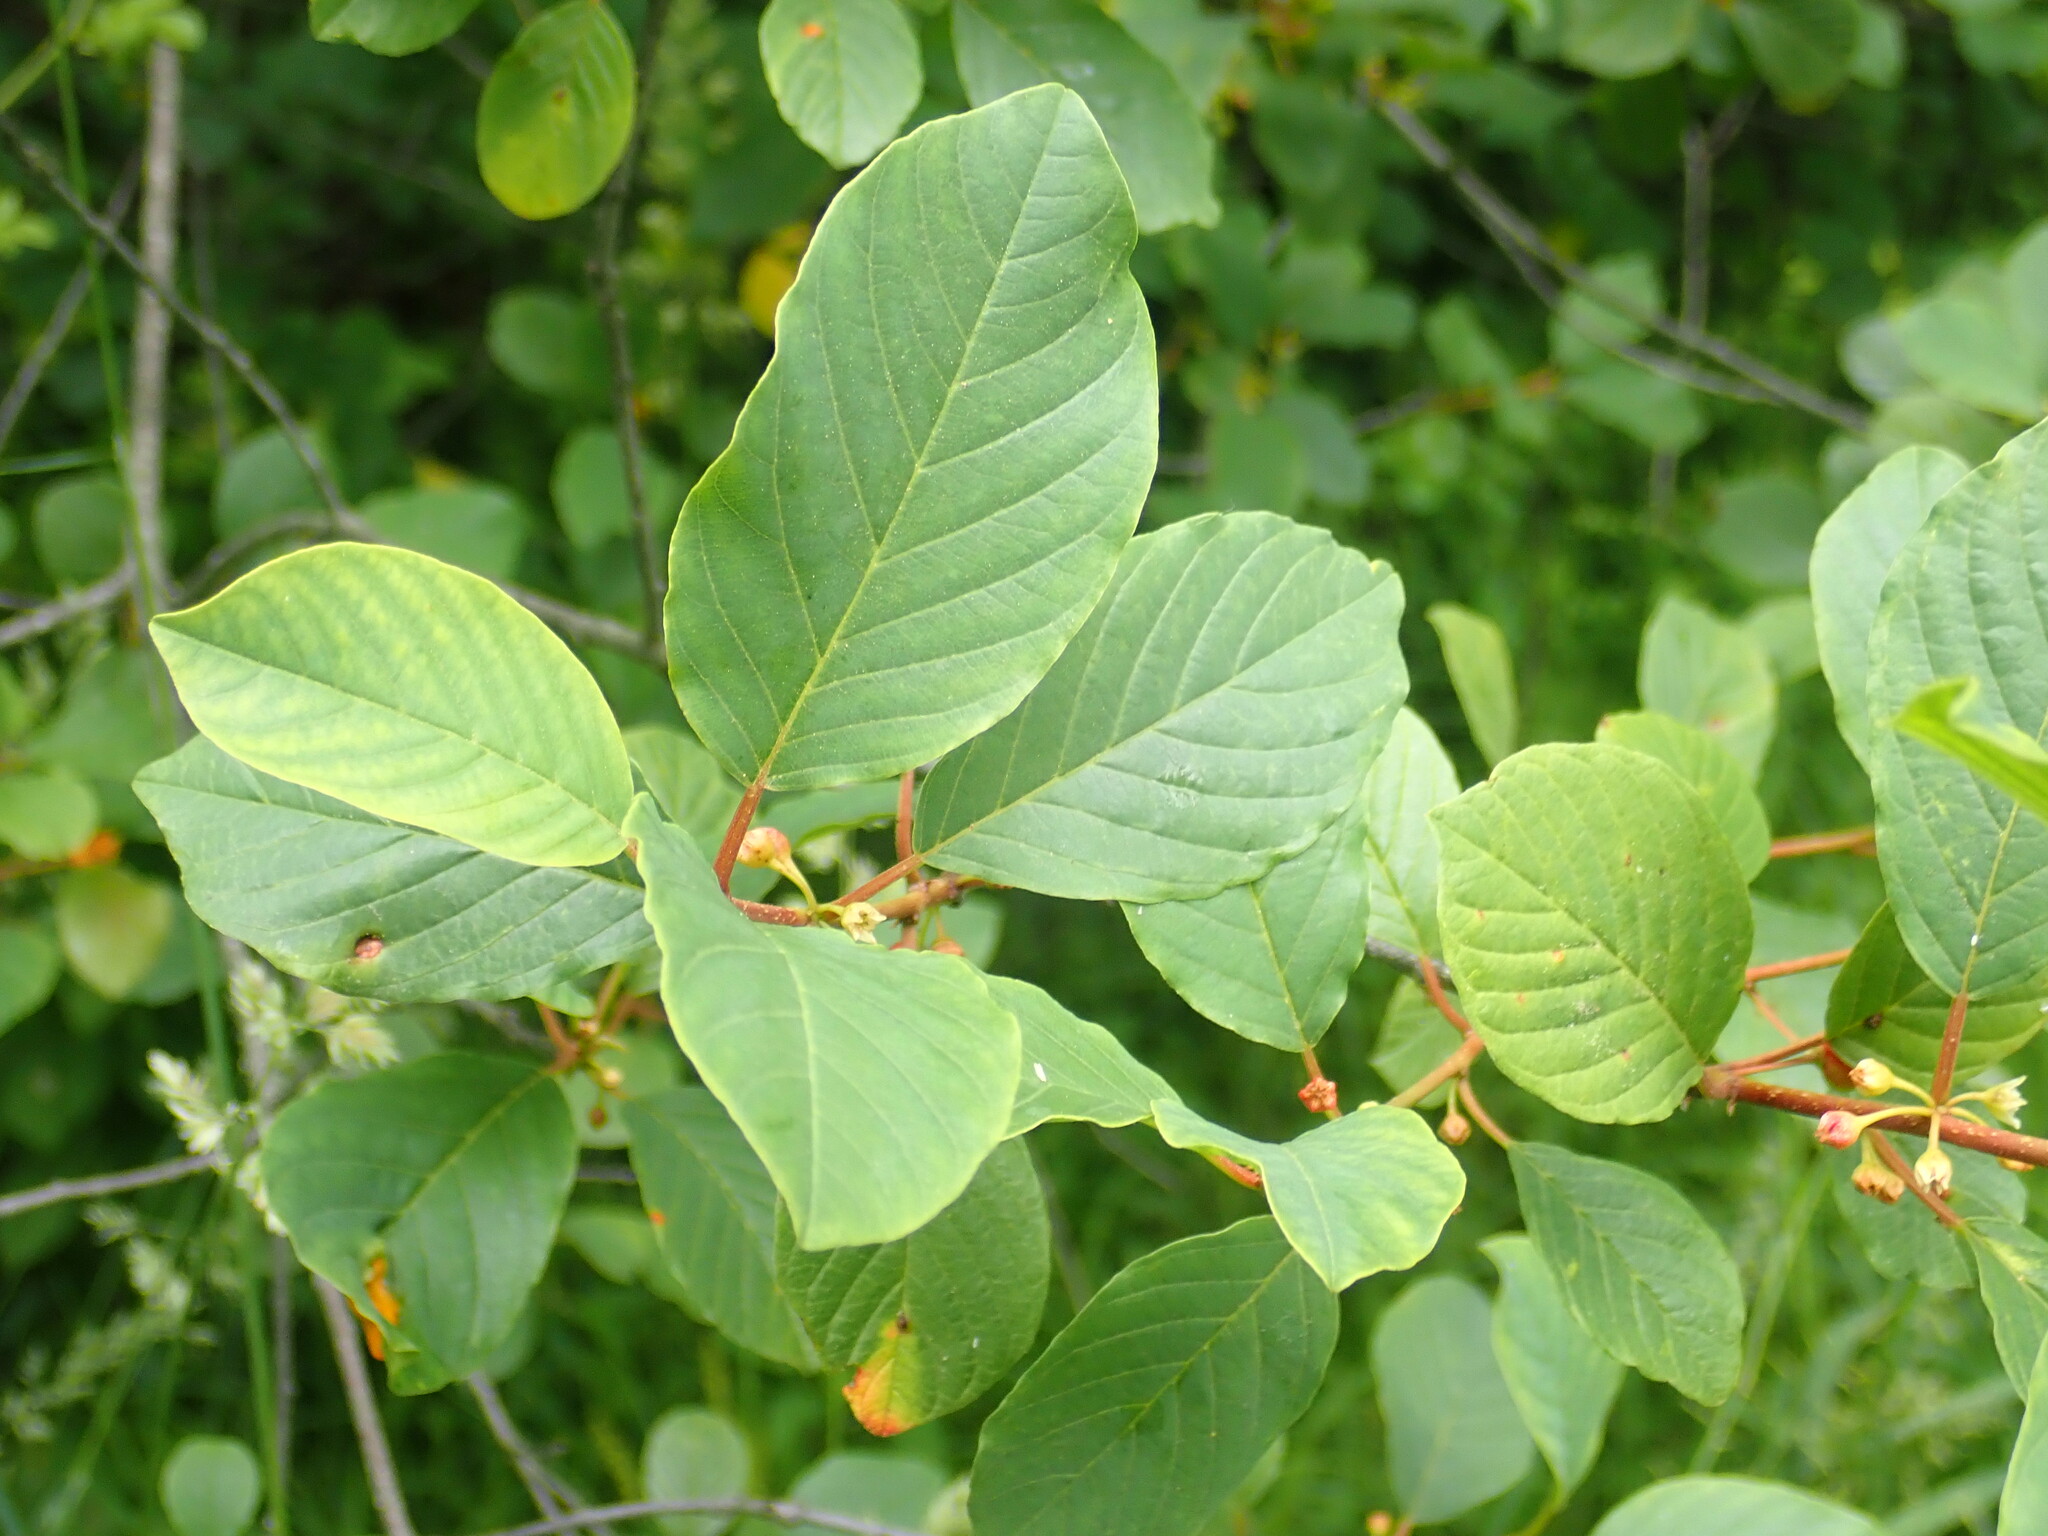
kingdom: Plantae
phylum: Tracheophyta
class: Magnoliopsida
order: Rosales
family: Rhamnaceae
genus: Frangula
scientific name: Frangula alnus
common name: Alder buckthorn
